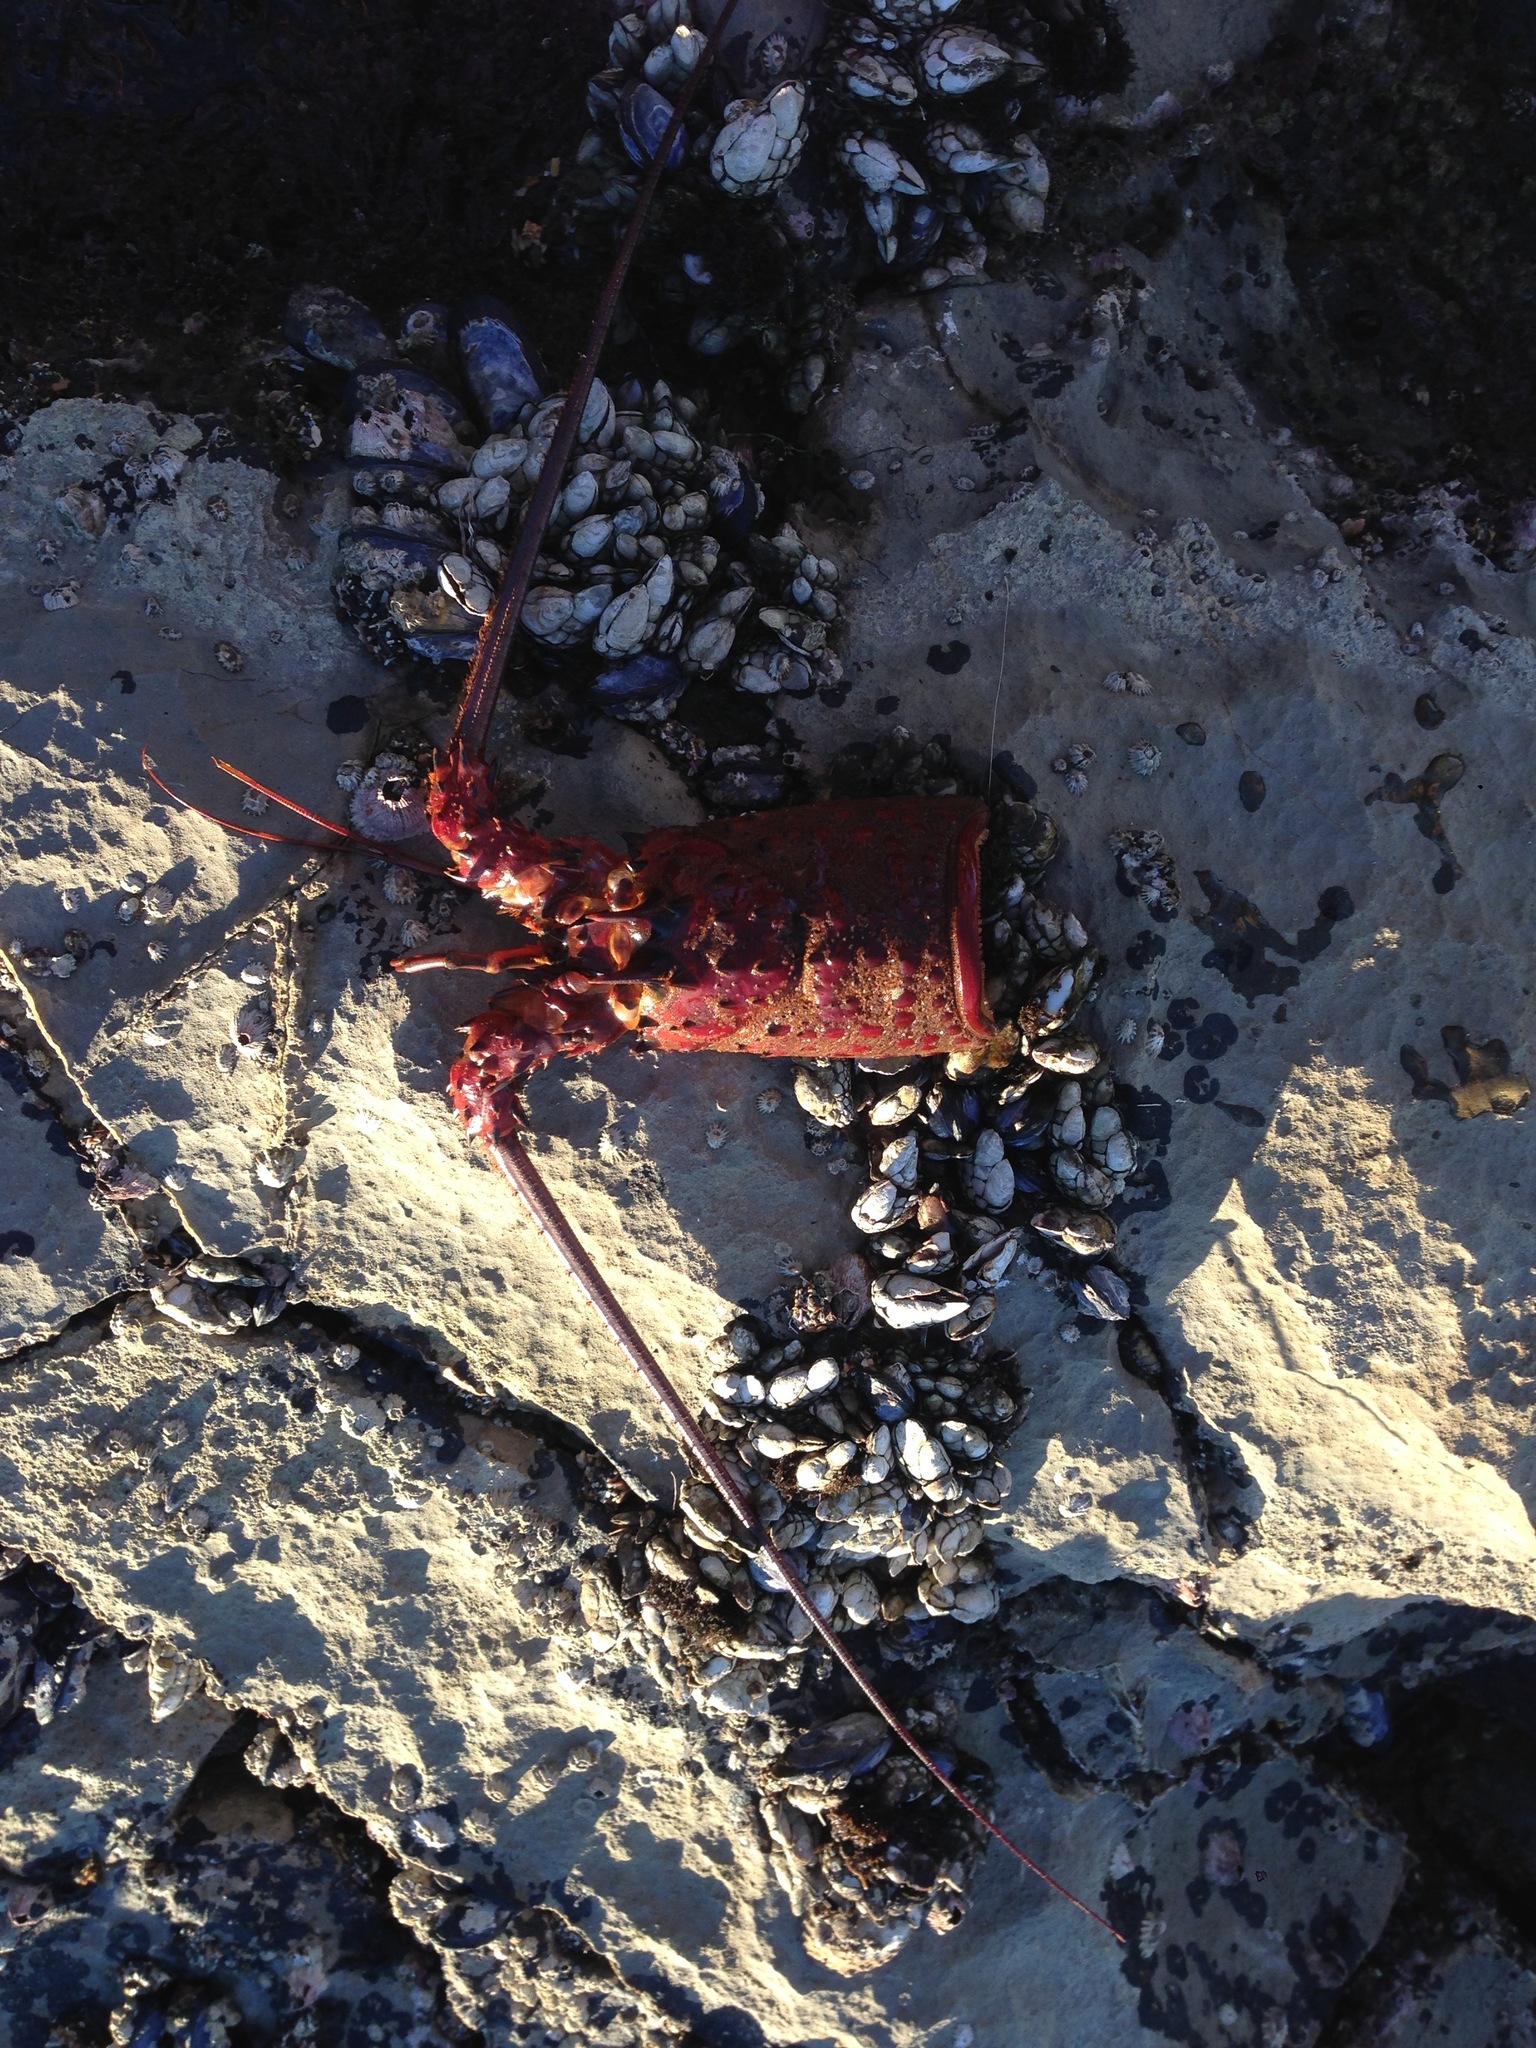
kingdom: Animalia
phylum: Arthropoda
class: Malacostraca
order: Decapoda
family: Palinuridae
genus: Panulirus
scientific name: Panulirus interruptus
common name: California spiny lobster
